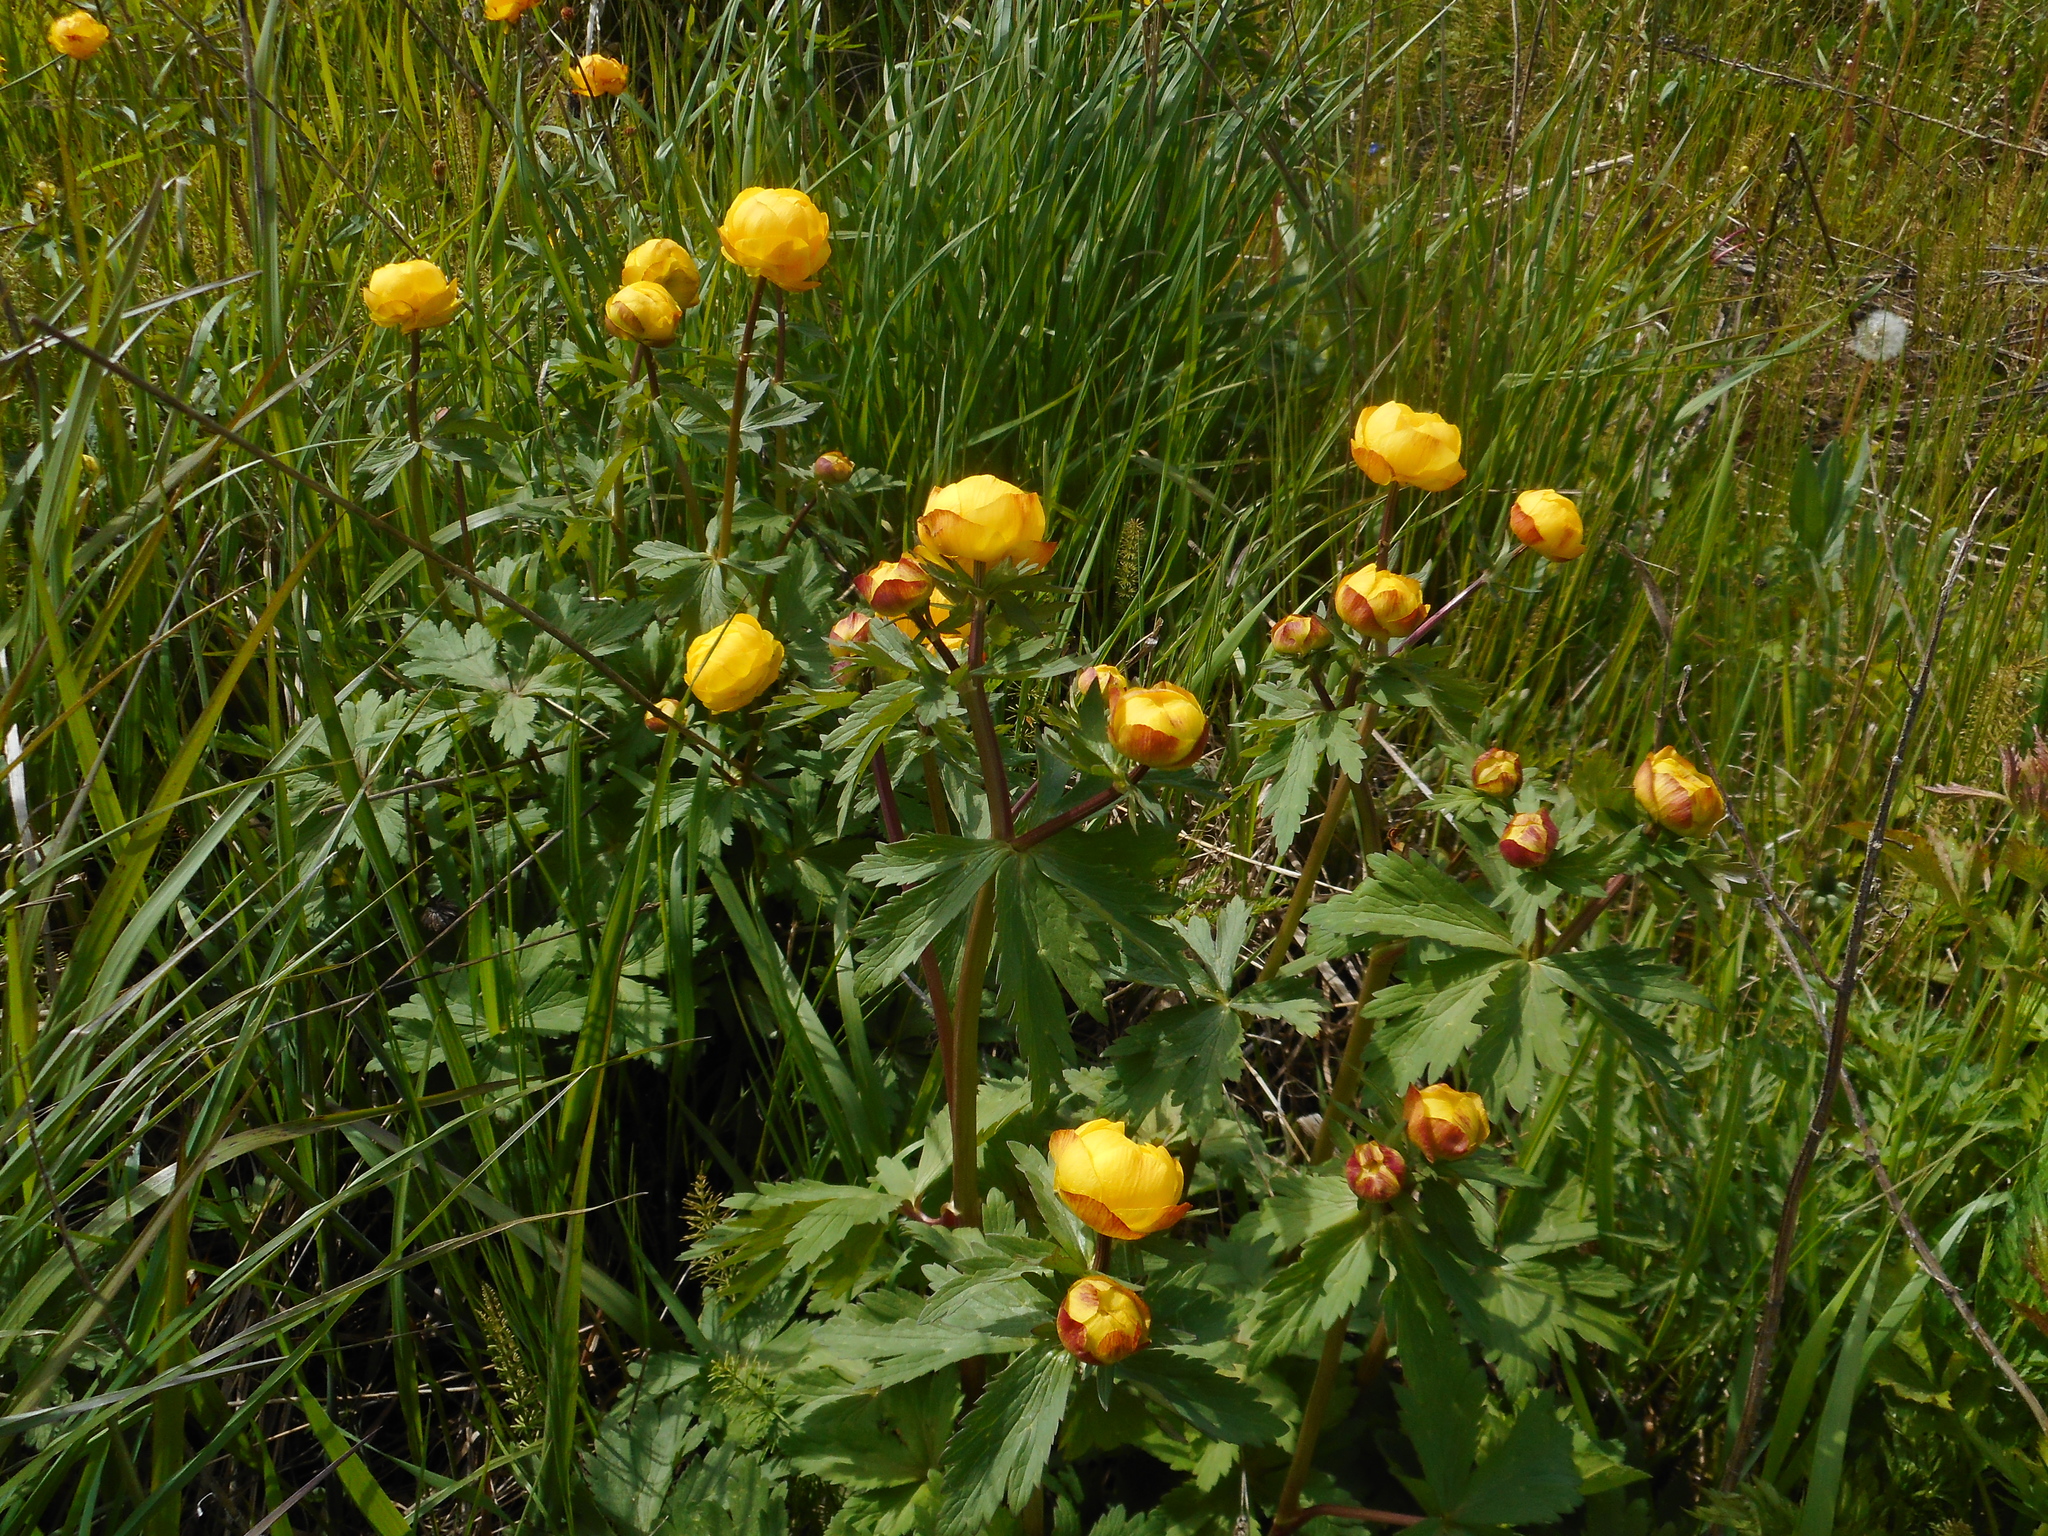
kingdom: Plantae
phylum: Tracheophyta
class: Magnoliopsida
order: Ranunculales
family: Ranunculaceae
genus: Trollius
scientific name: Trollius europaeus
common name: European globeflower
